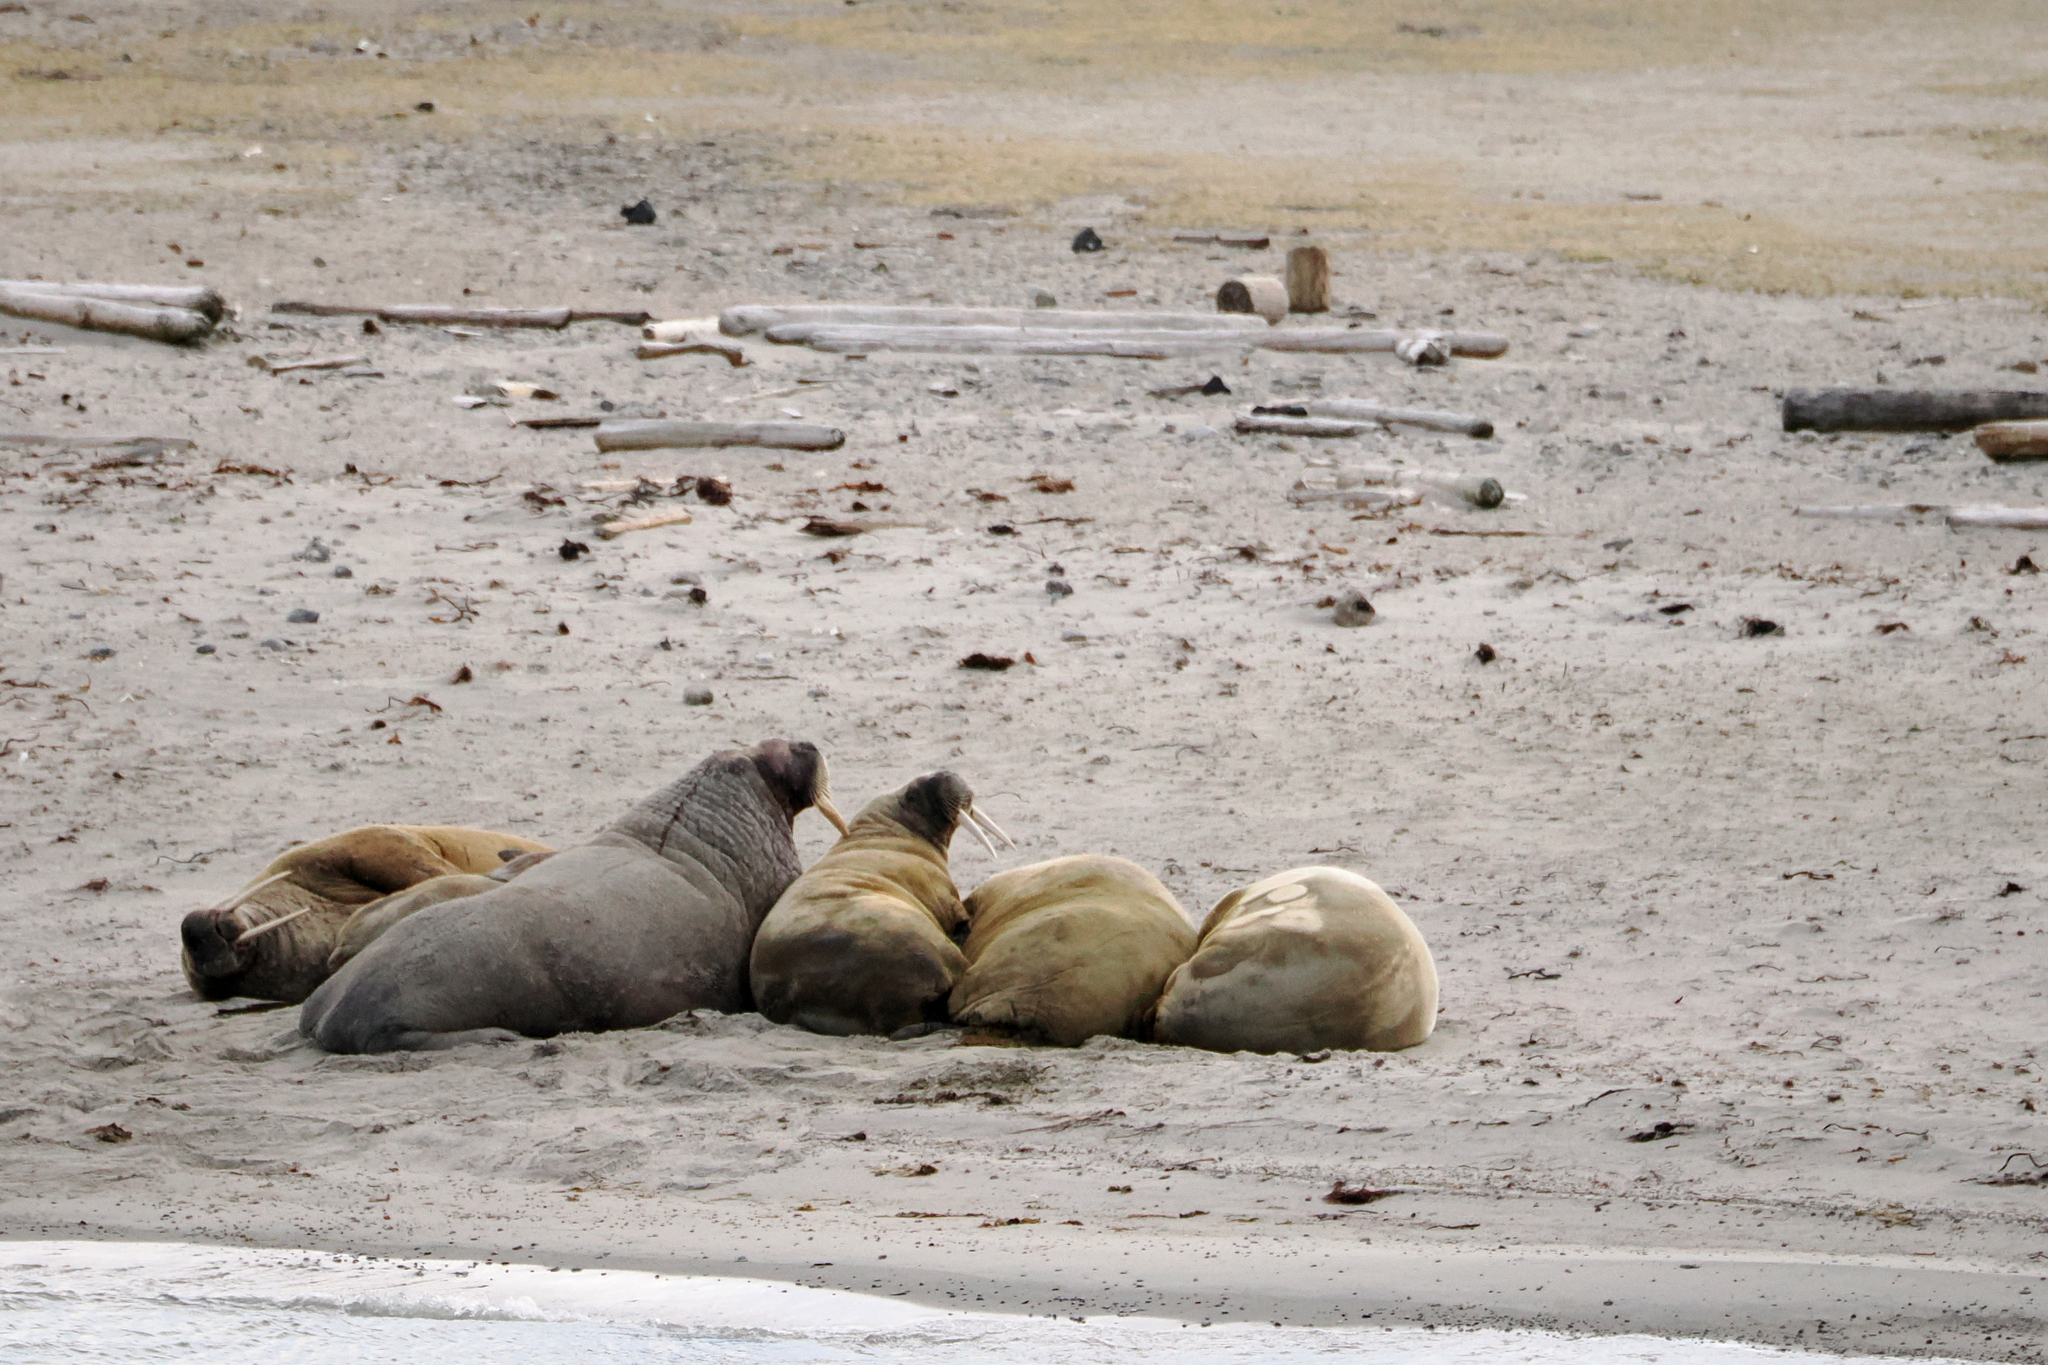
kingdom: Animalia
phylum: Chordata
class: Mammalia
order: Carnivora
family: Odobenidae
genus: Odobenus
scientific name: Odobenus rosmarus
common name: Walrus
